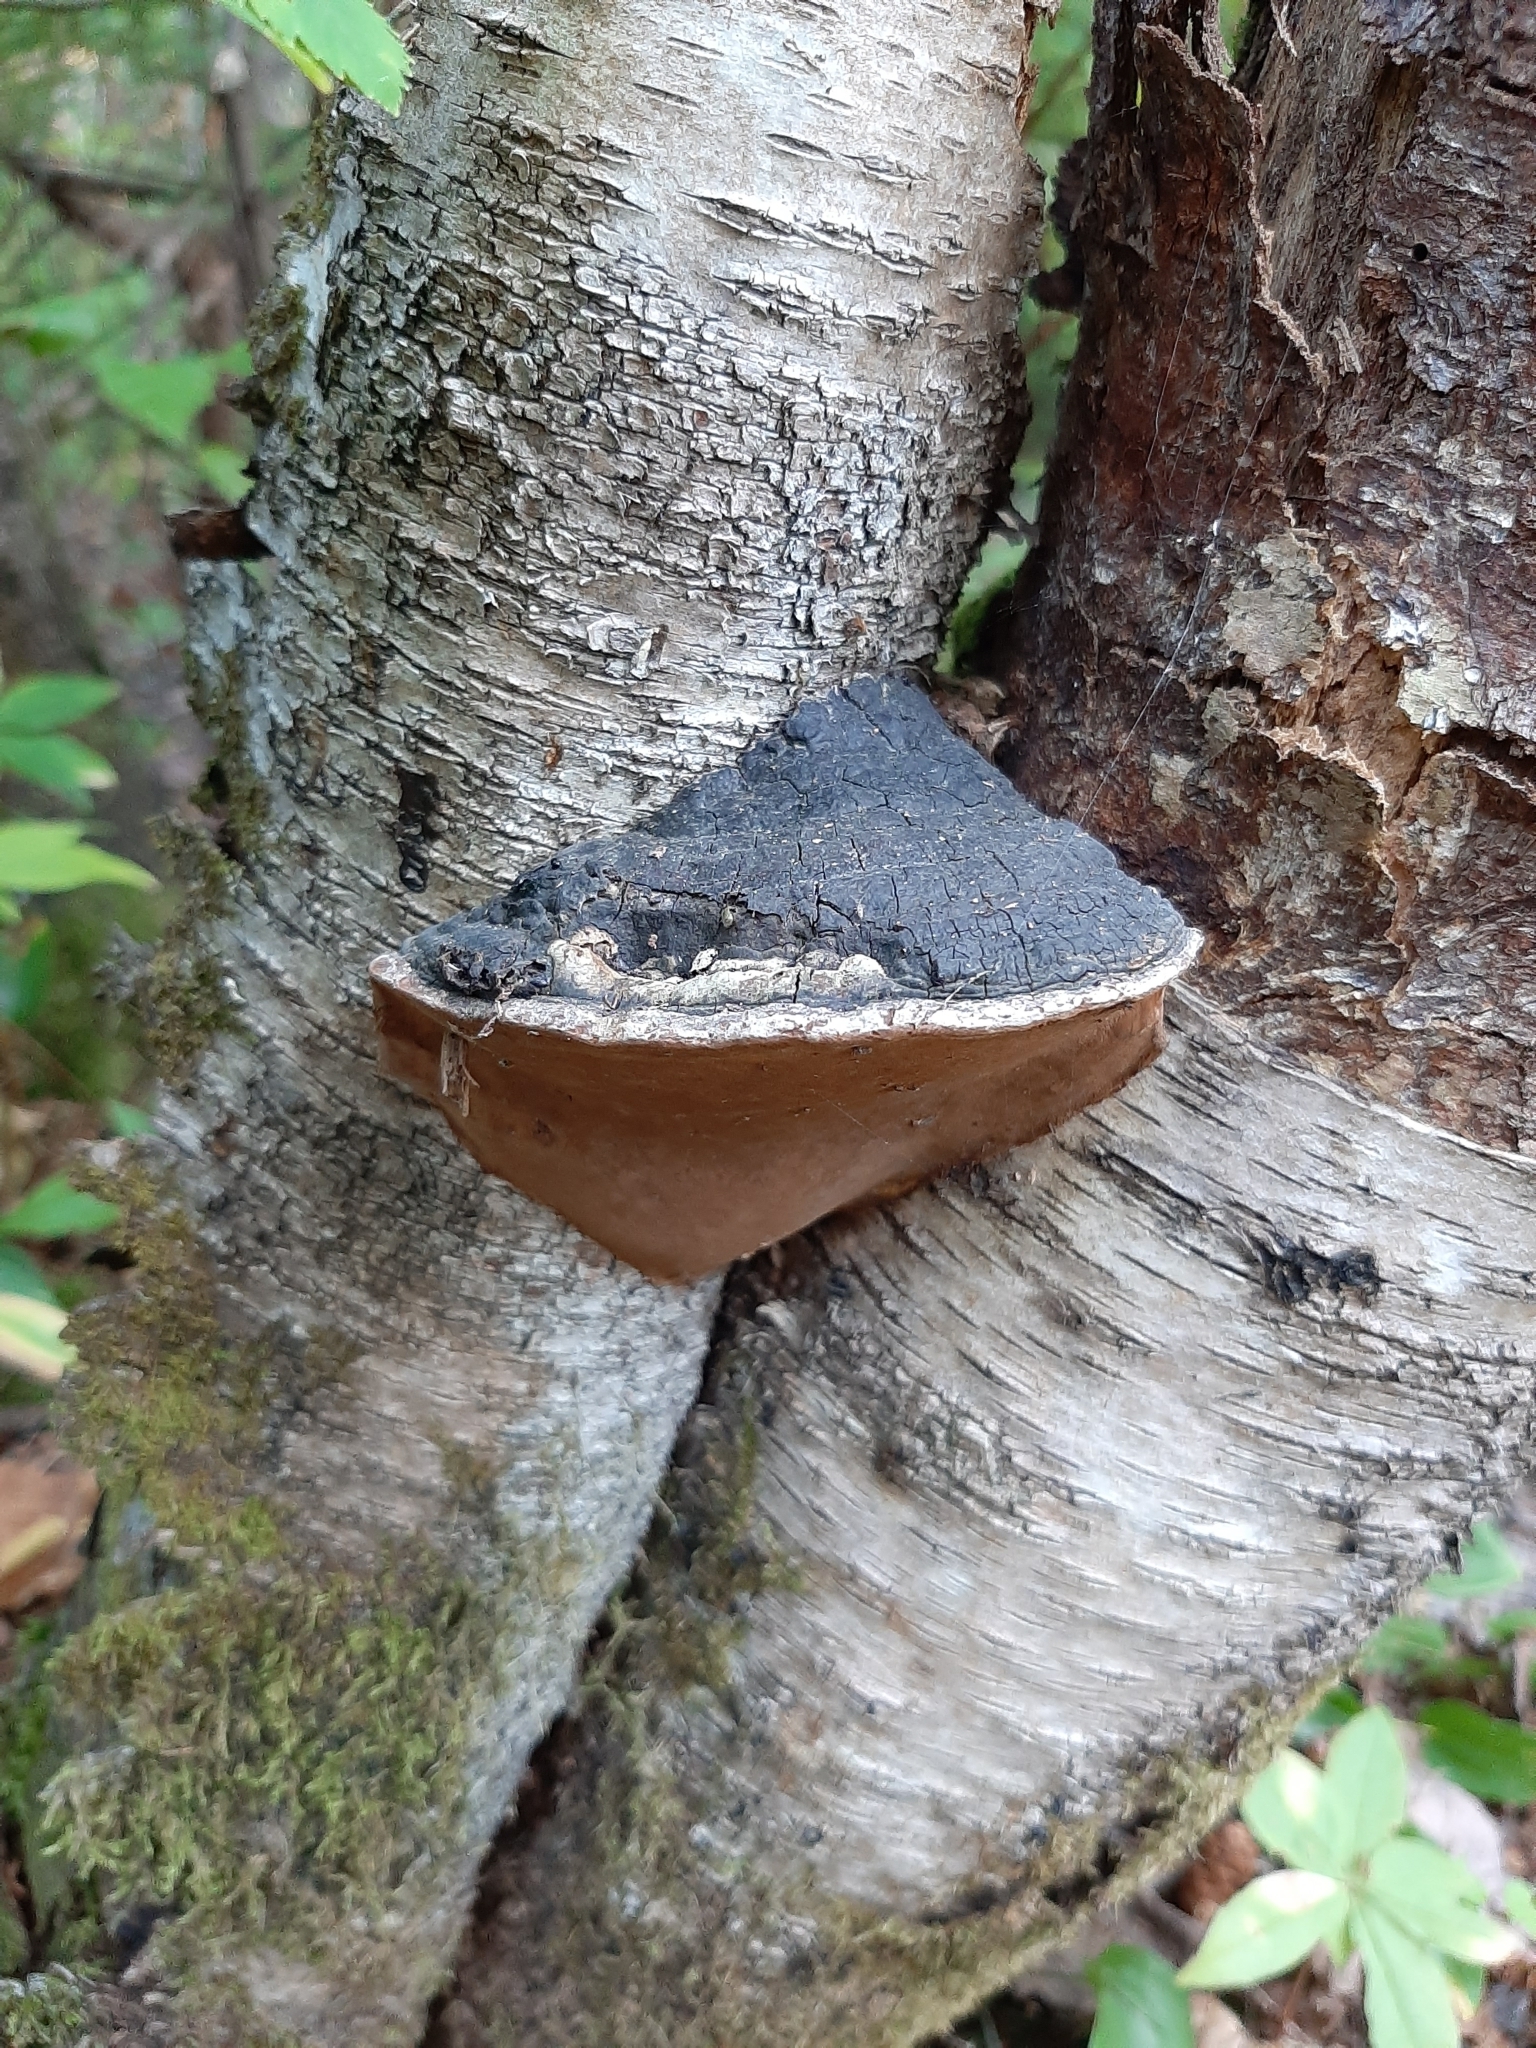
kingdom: Fungi
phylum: Basidiomycota
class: Agaricomycetes
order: Hymenochaetales
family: Hymenochaetaceae
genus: Phellinus
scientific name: Phellinus igniarius
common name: Willow bracket
